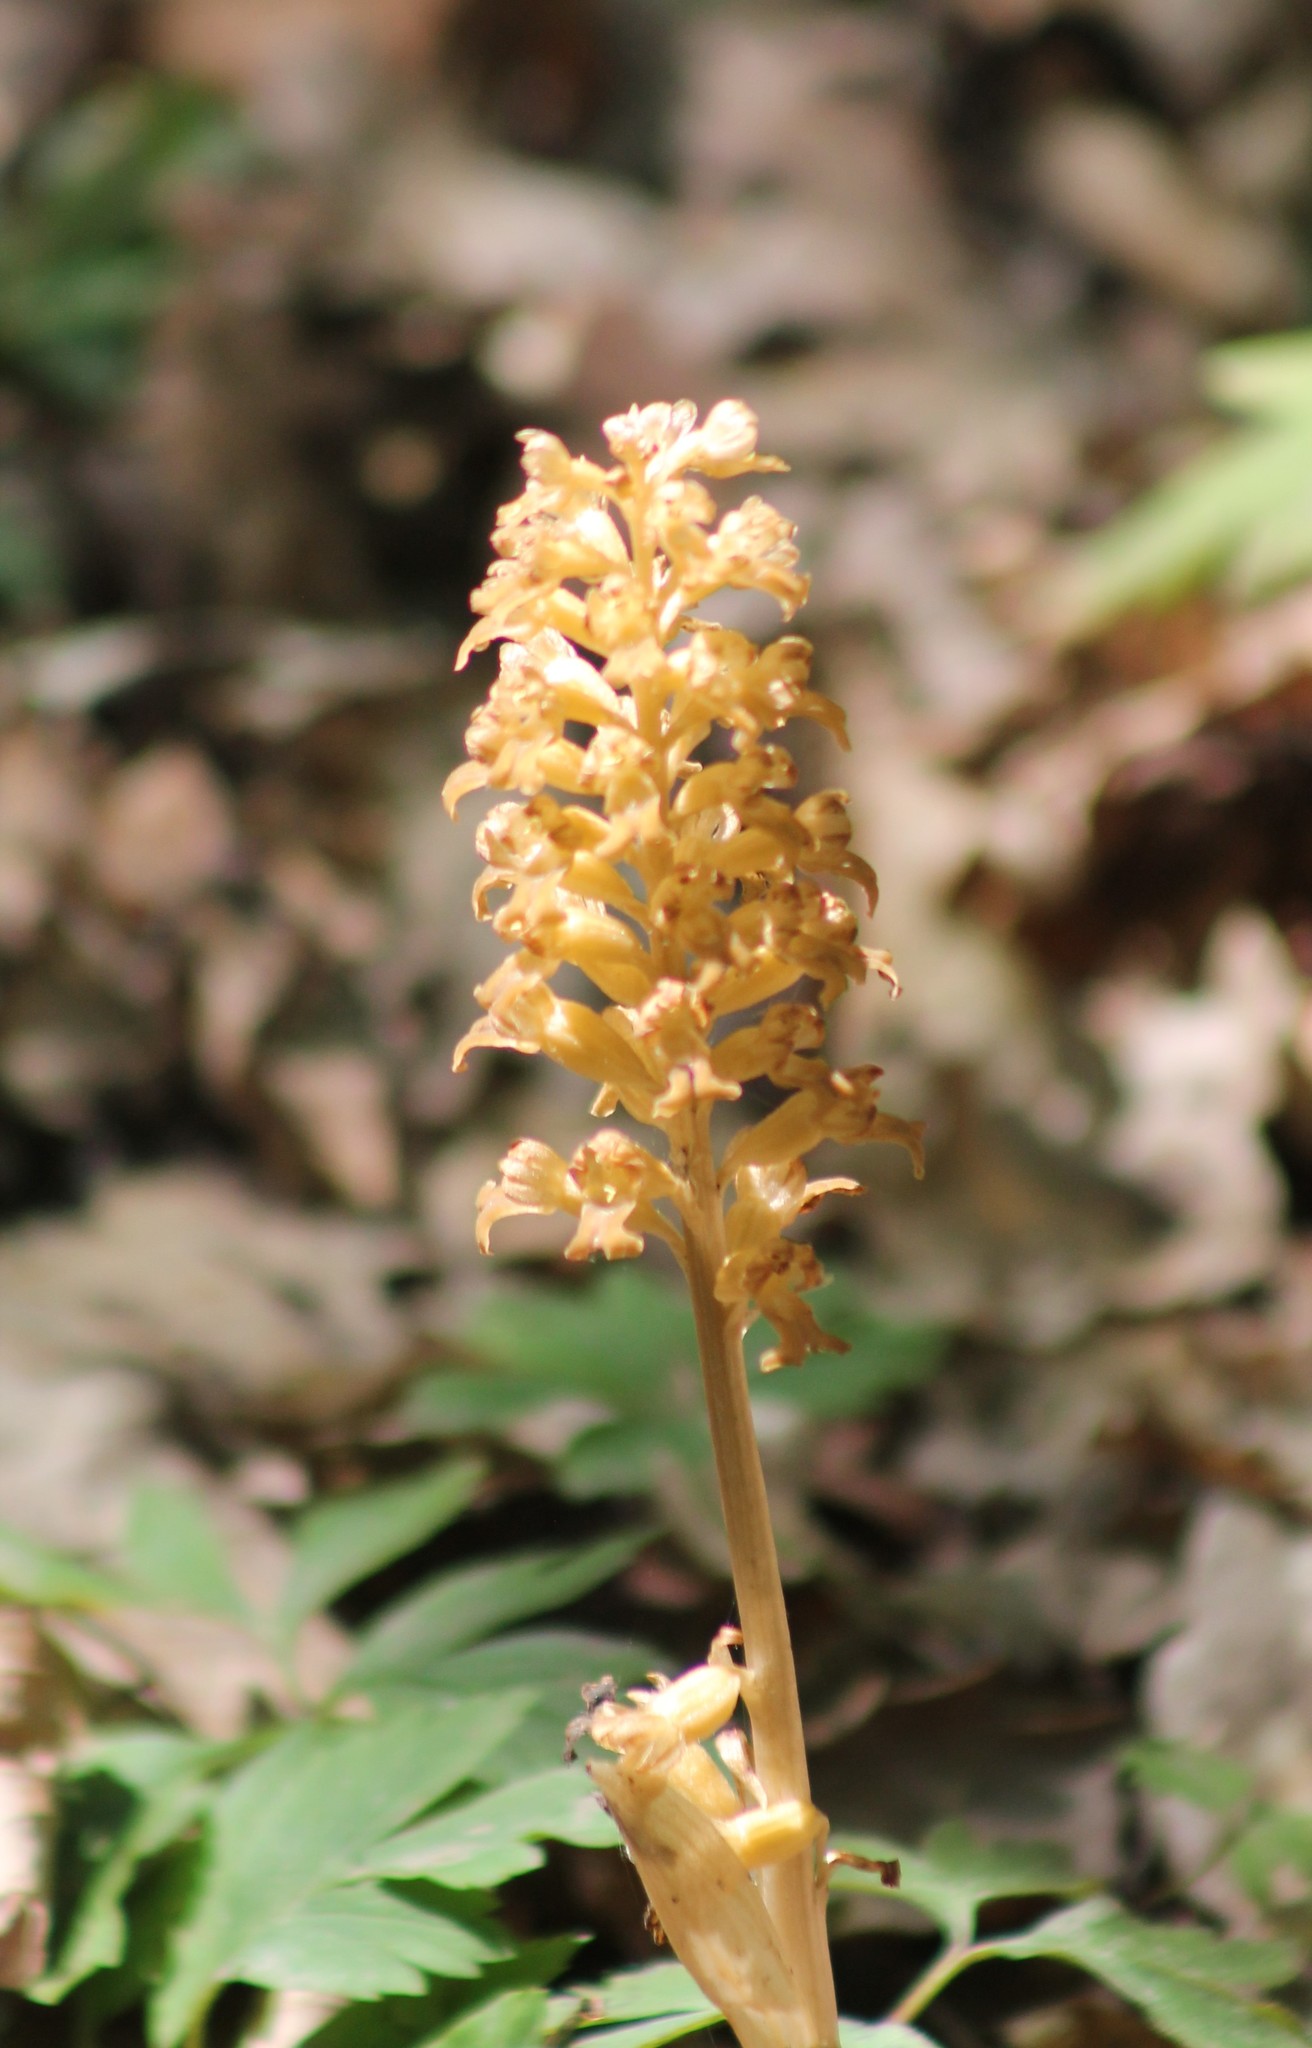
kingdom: Plantae
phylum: Tracheophyta
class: Liliopsida
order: Asparagales
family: Orchidaceae
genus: Neottia
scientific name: Neottia nidus-avis
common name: Bird's-nest orchid
